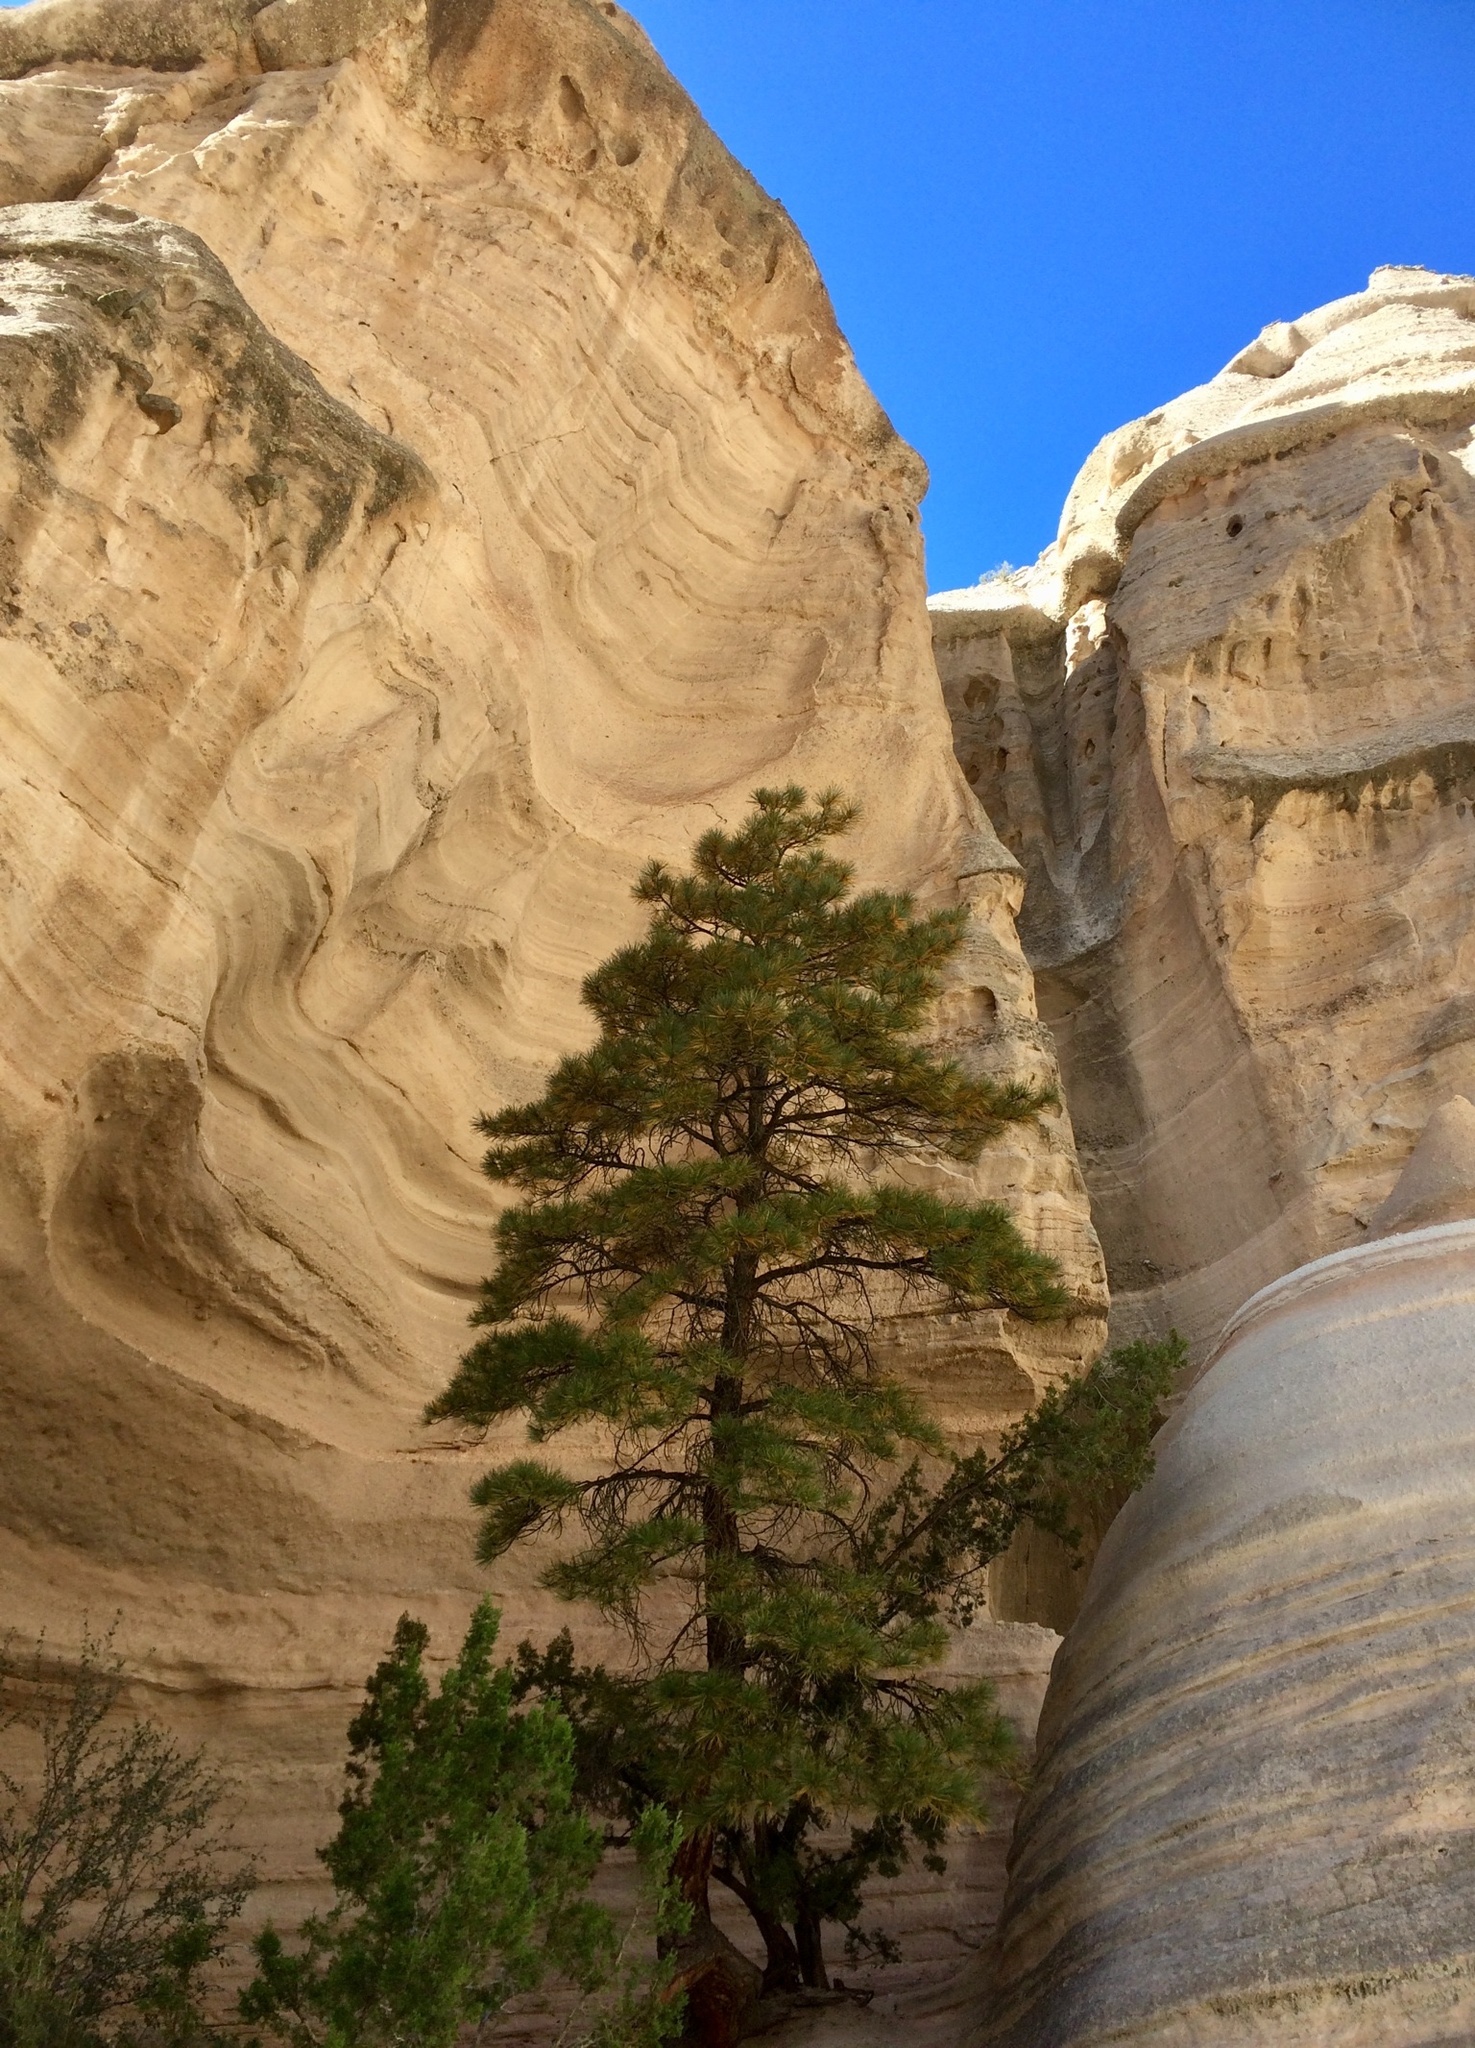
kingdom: Plantae
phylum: Tracheophyta
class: Pinopsida
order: Pinales
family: Pinaceae
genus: Pinus
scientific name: Pinus ponderosa
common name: Western yellow-pine
